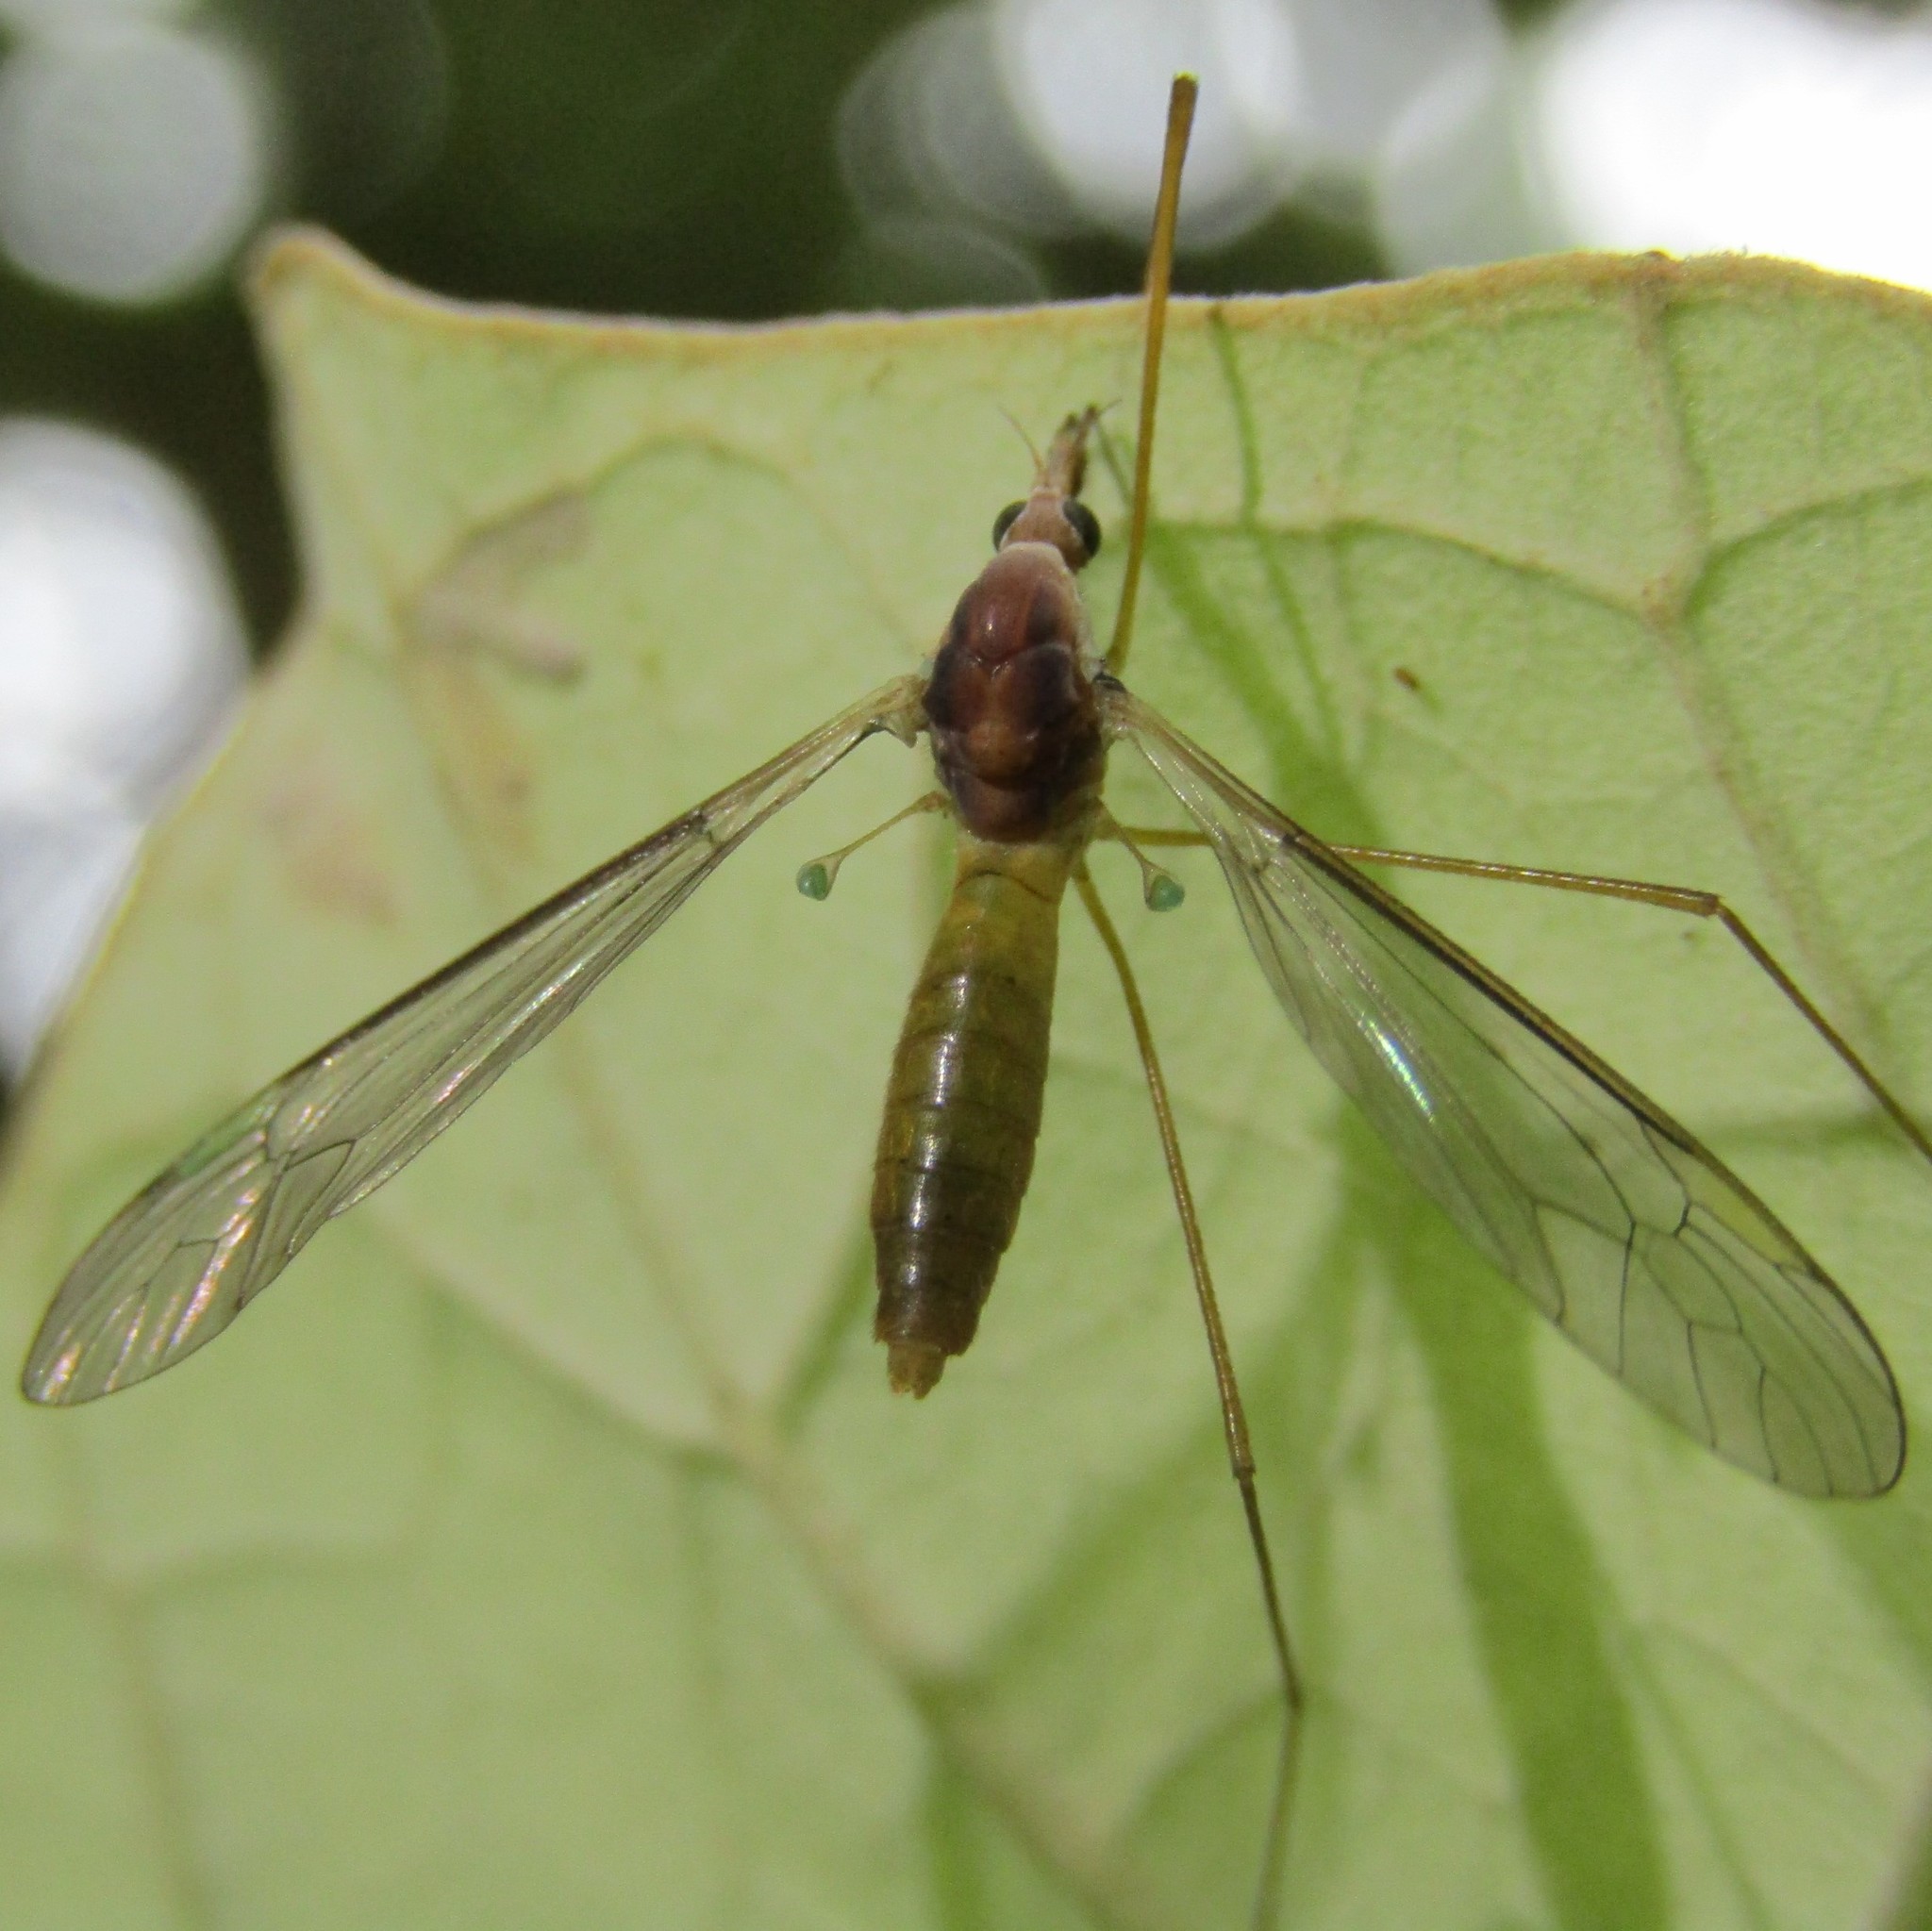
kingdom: Animalia
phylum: Arthropoda
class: Insecta
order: Diptera
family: Tipulidae
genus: Leptotarsus
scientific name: Leptotarsus pallidistigma
